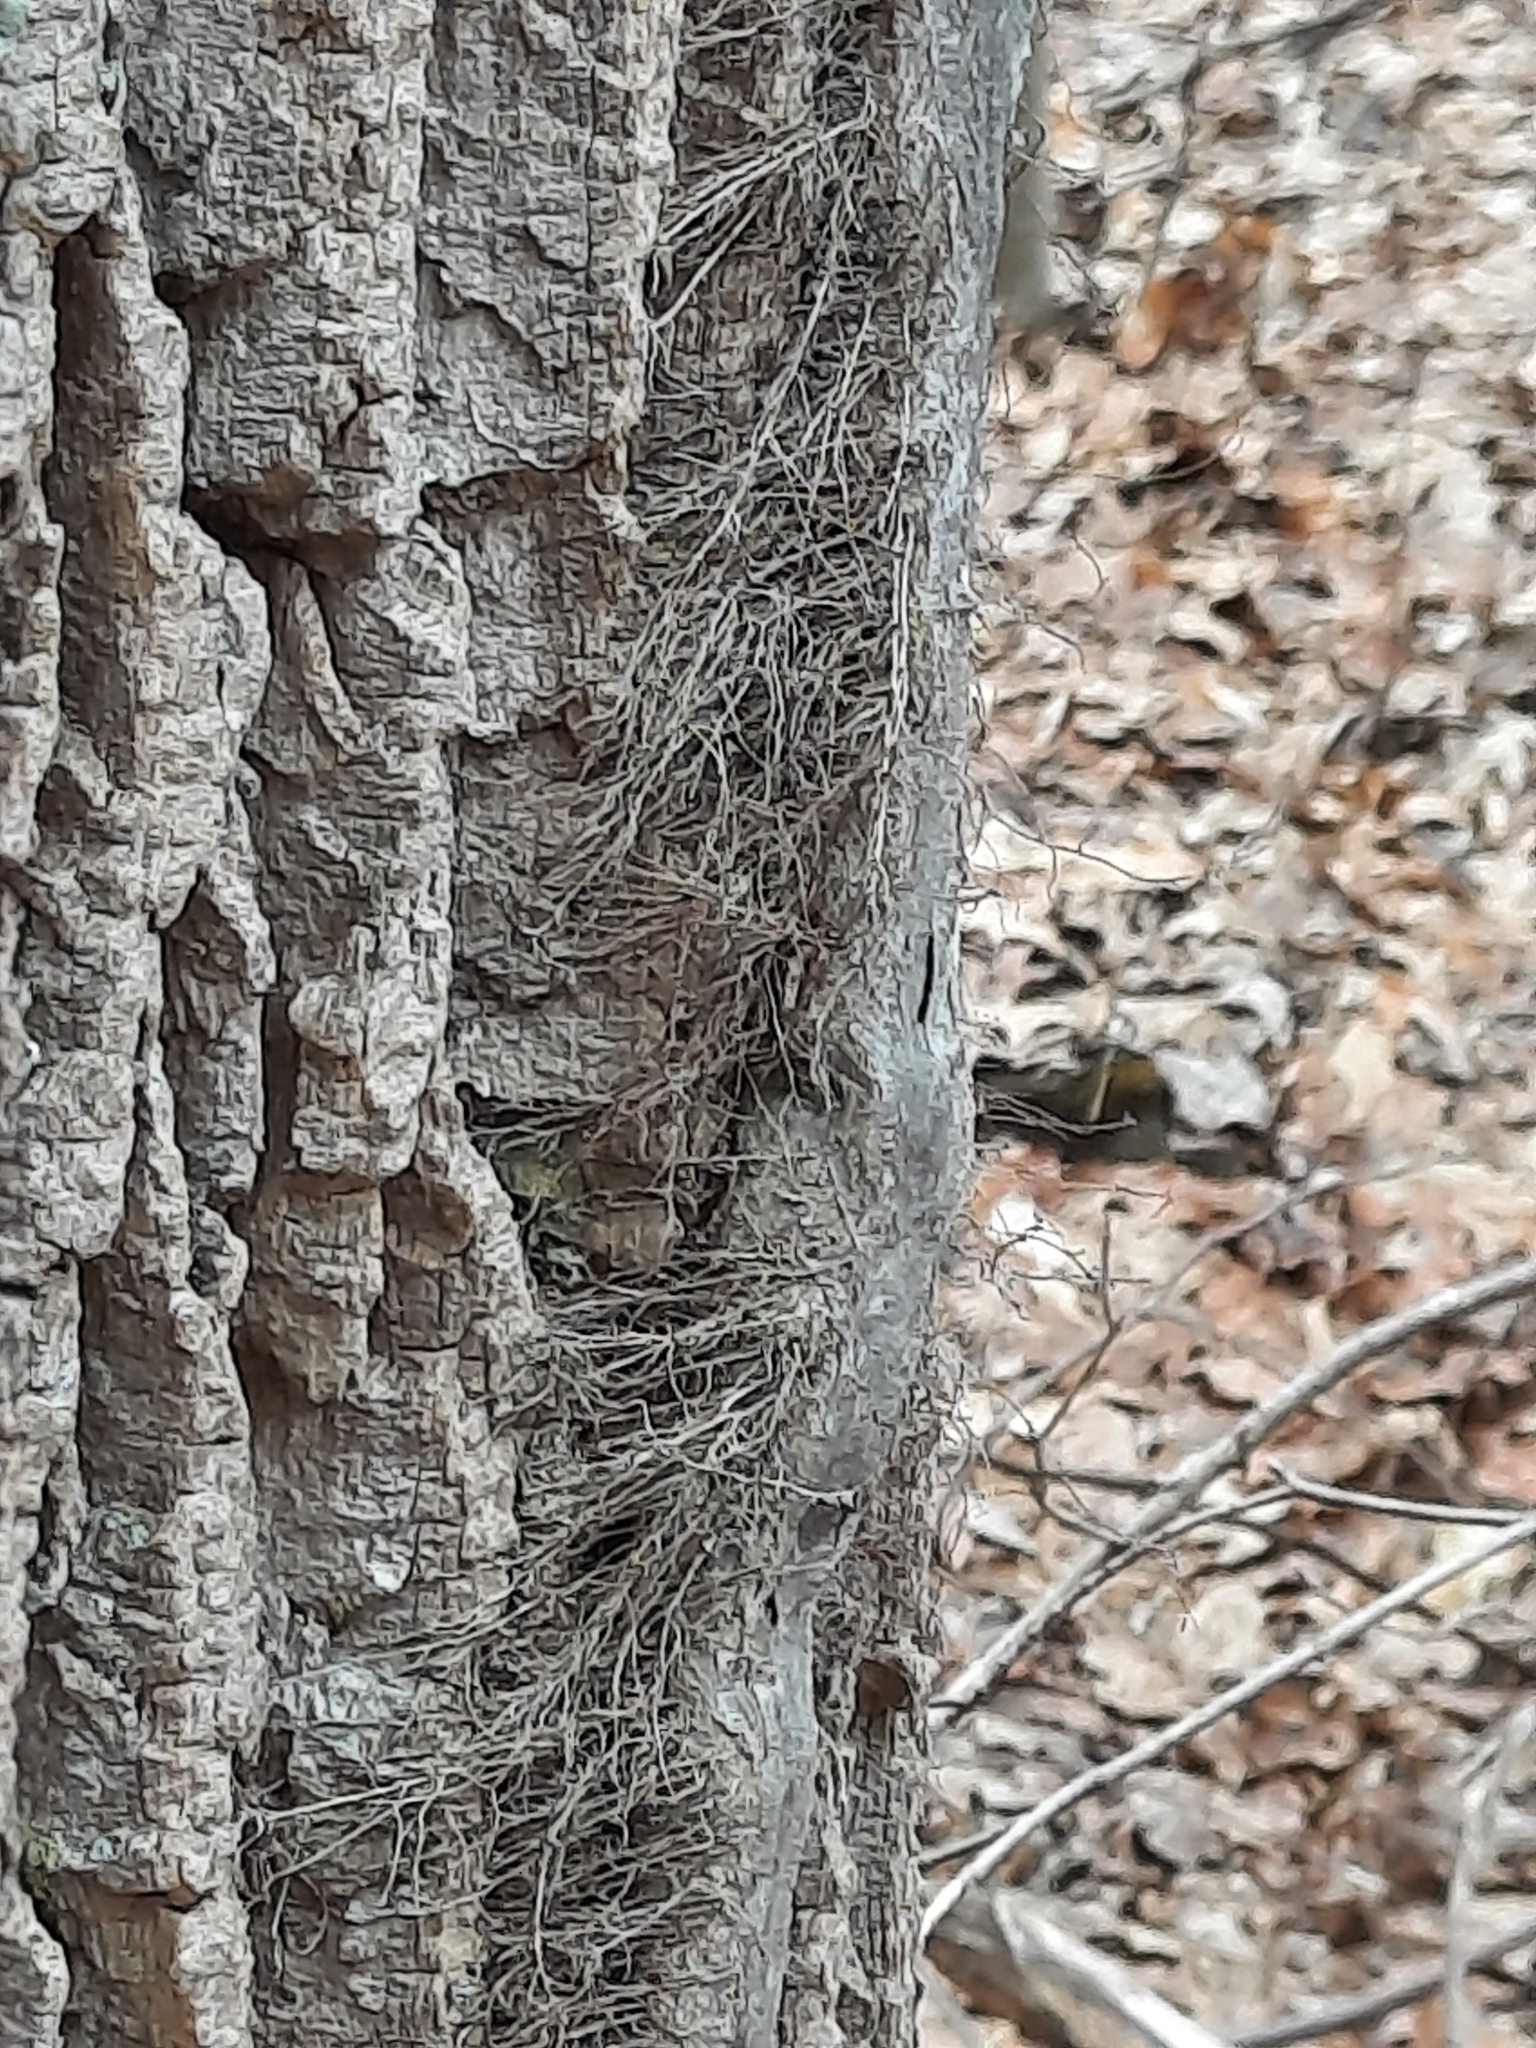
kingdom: Plantae
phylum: Tracheophyta
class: Magnoliopsida
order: Sapindales
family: Anacardiaceae
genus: Toxicodendron
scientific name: Toxicodendron radicans
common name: Poison ivy
